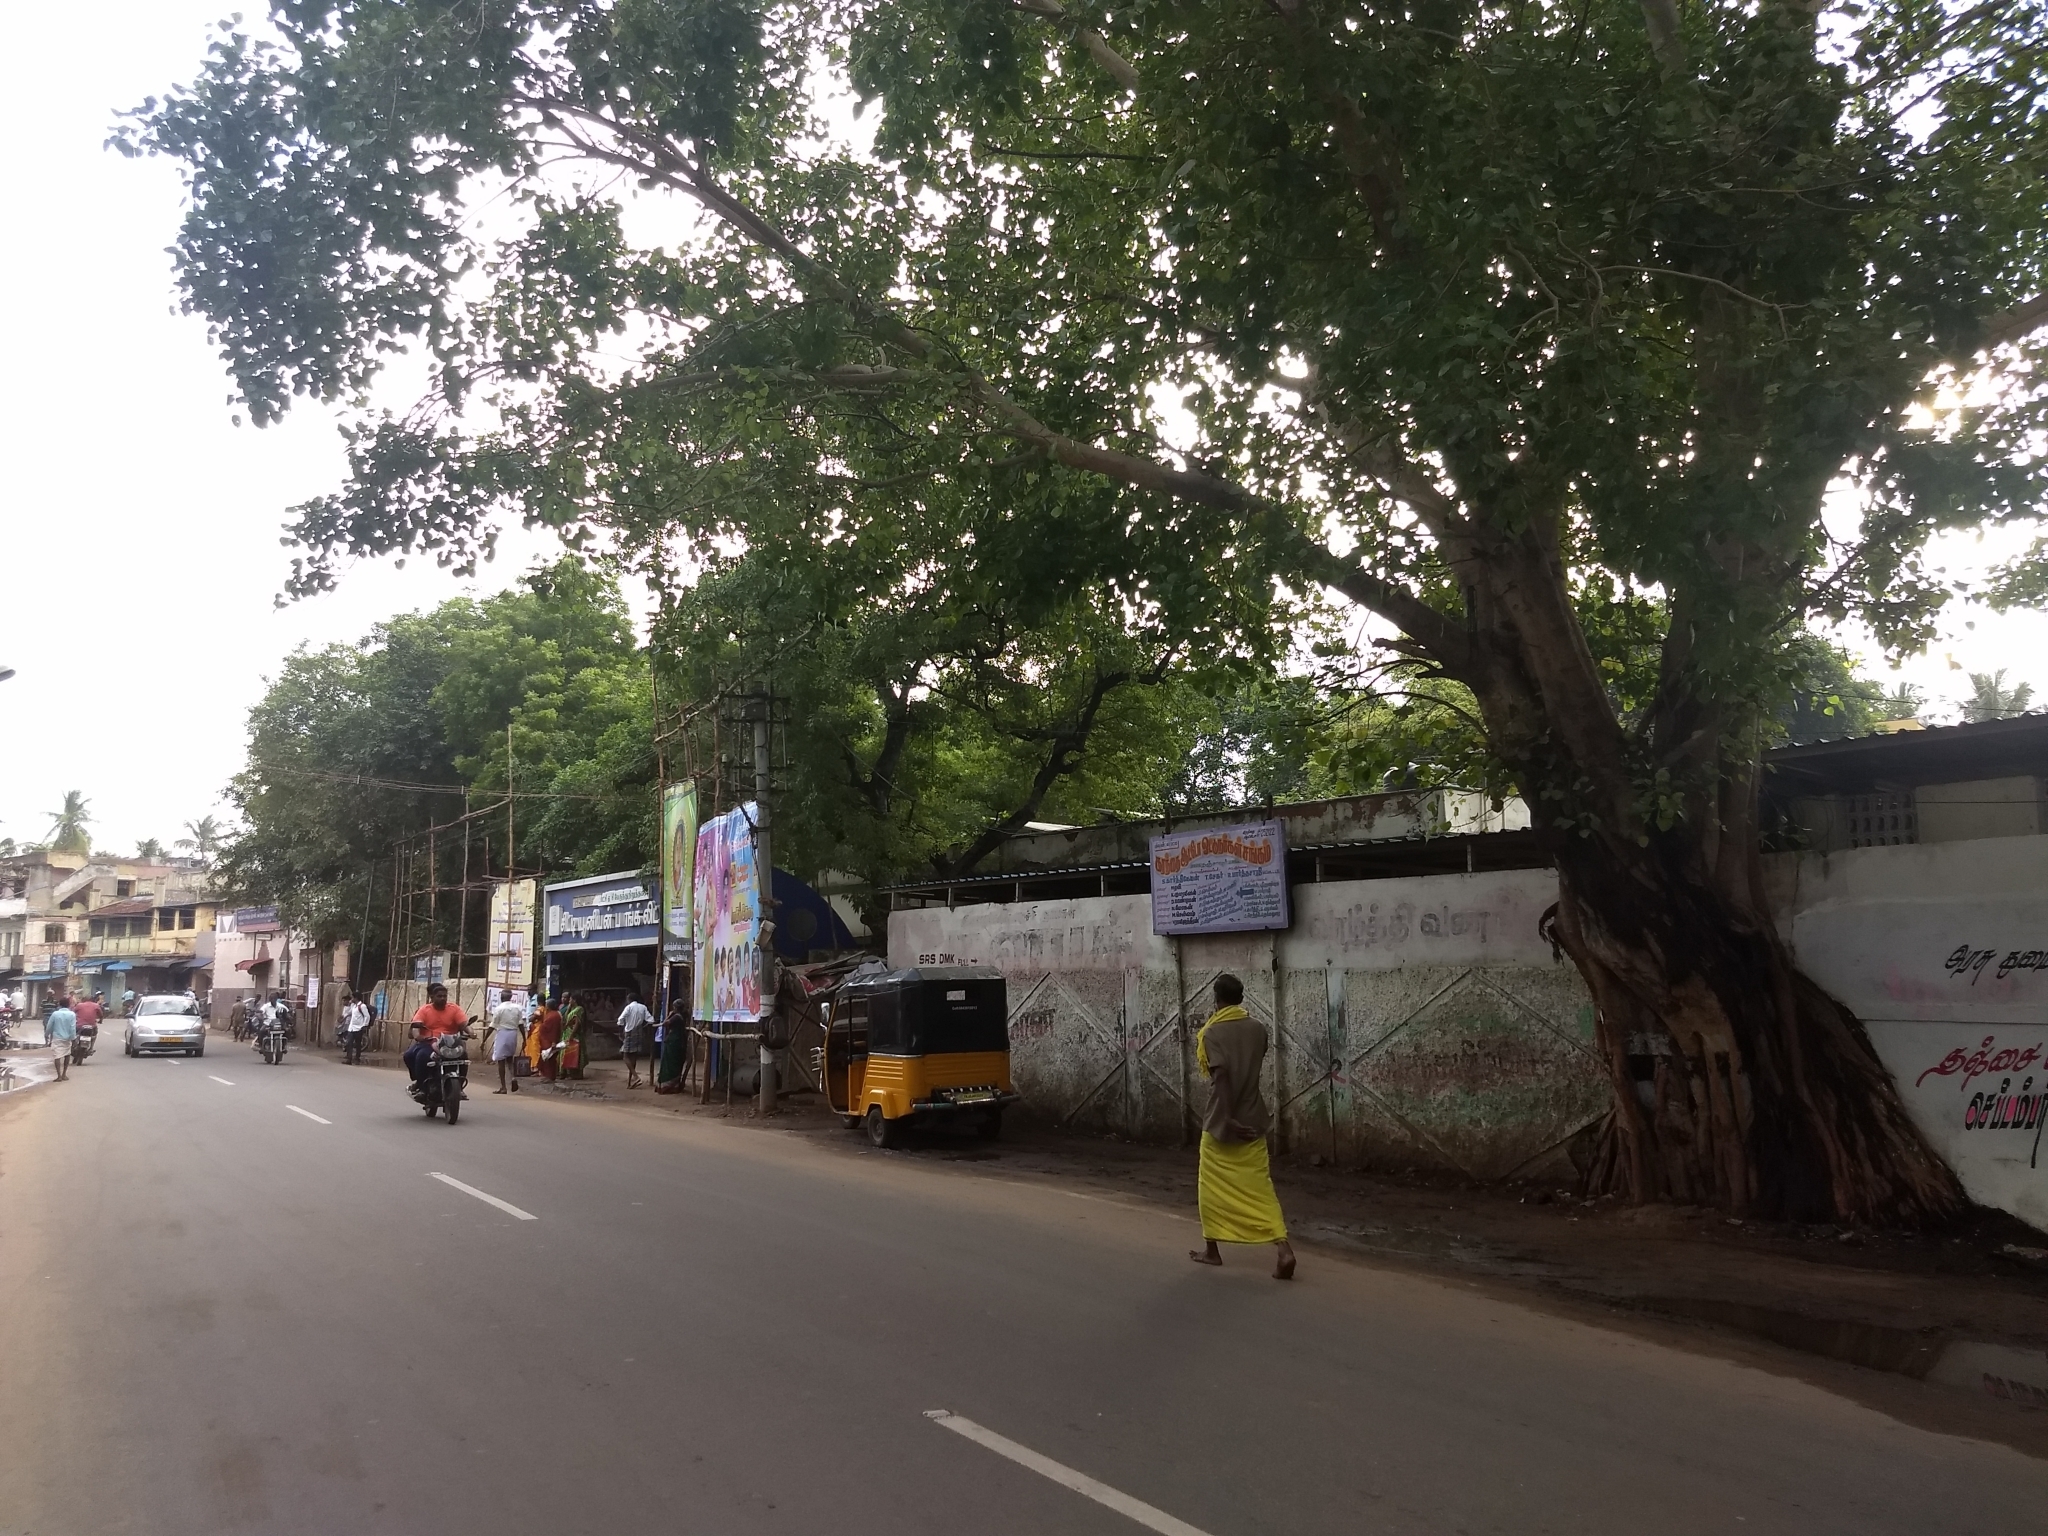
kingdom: Plantae
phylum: Tracheophyta
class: Magnoliopsida
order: Rosales
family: Moraceae
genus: Ficus
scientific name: Ficus religiosa
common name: Bodhi tree
